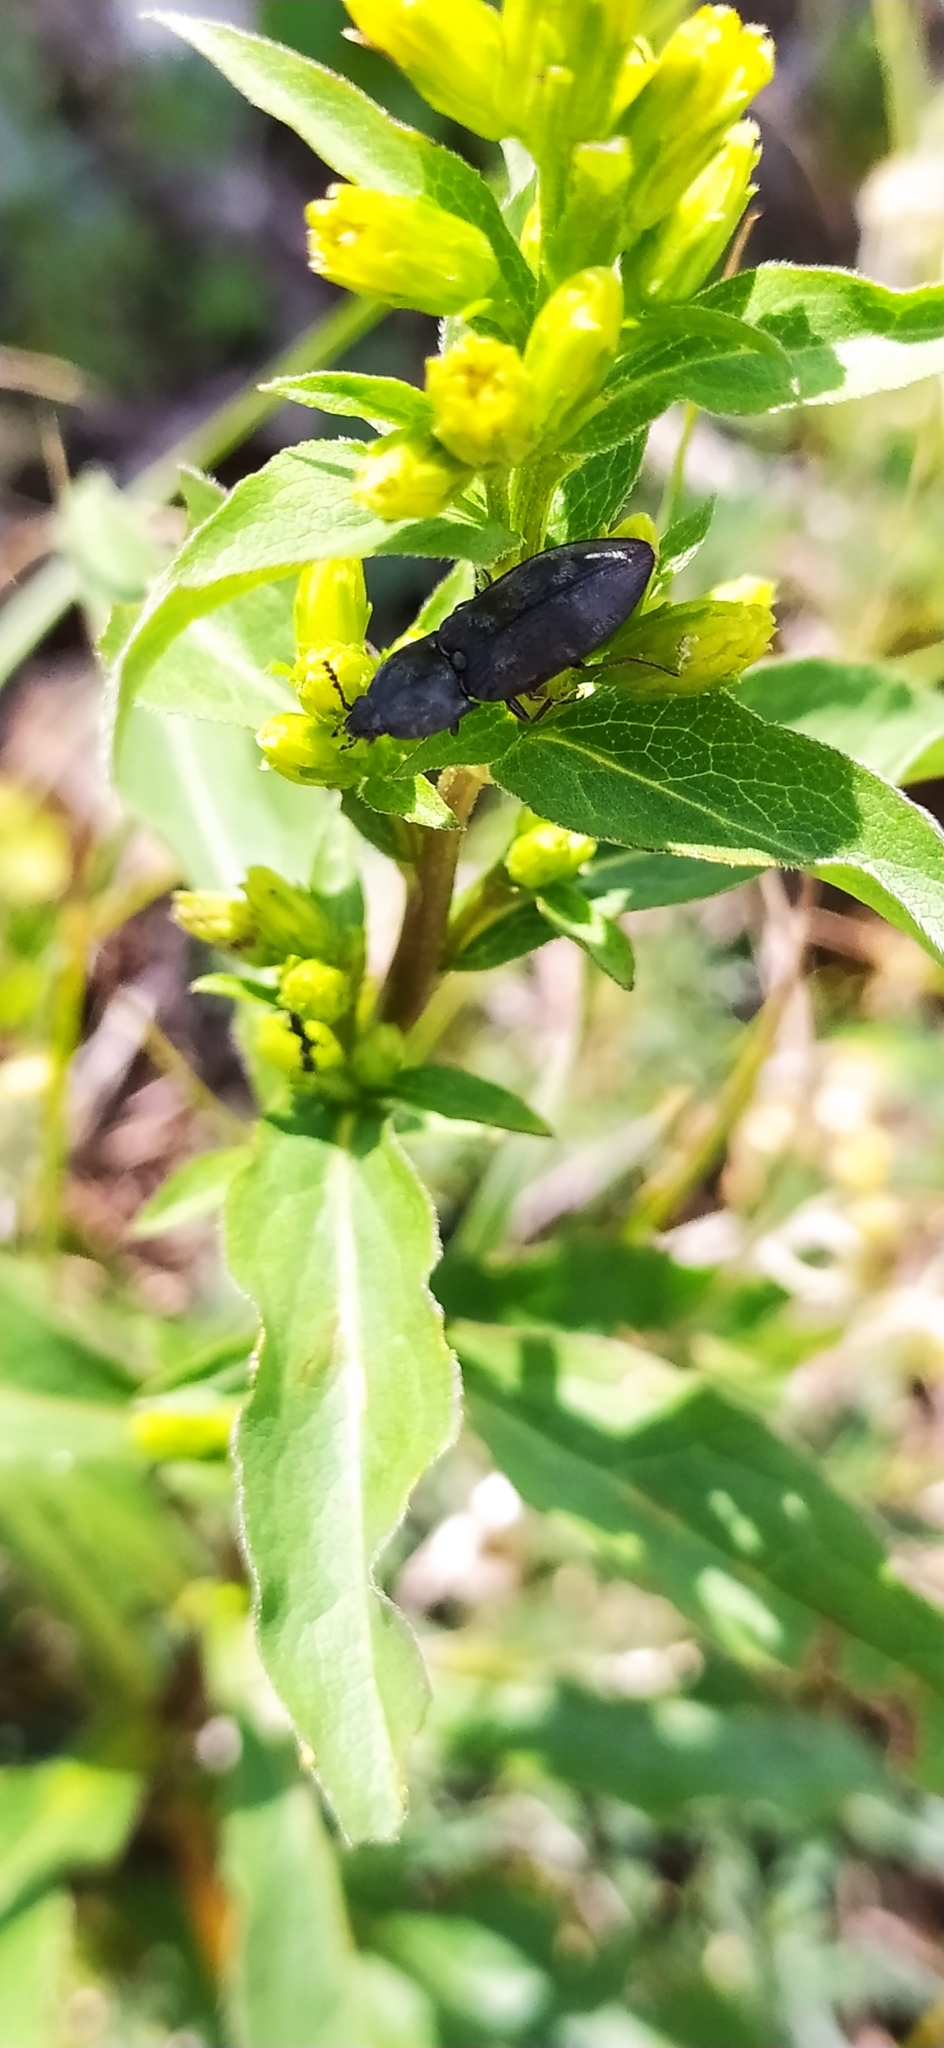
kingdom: Animalia
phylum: Arthropoda
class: Insecta
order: Coleoptera
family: Elateridae
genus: Prosternon
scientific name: Prosternon tessellatum
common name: Chequered click beetle
